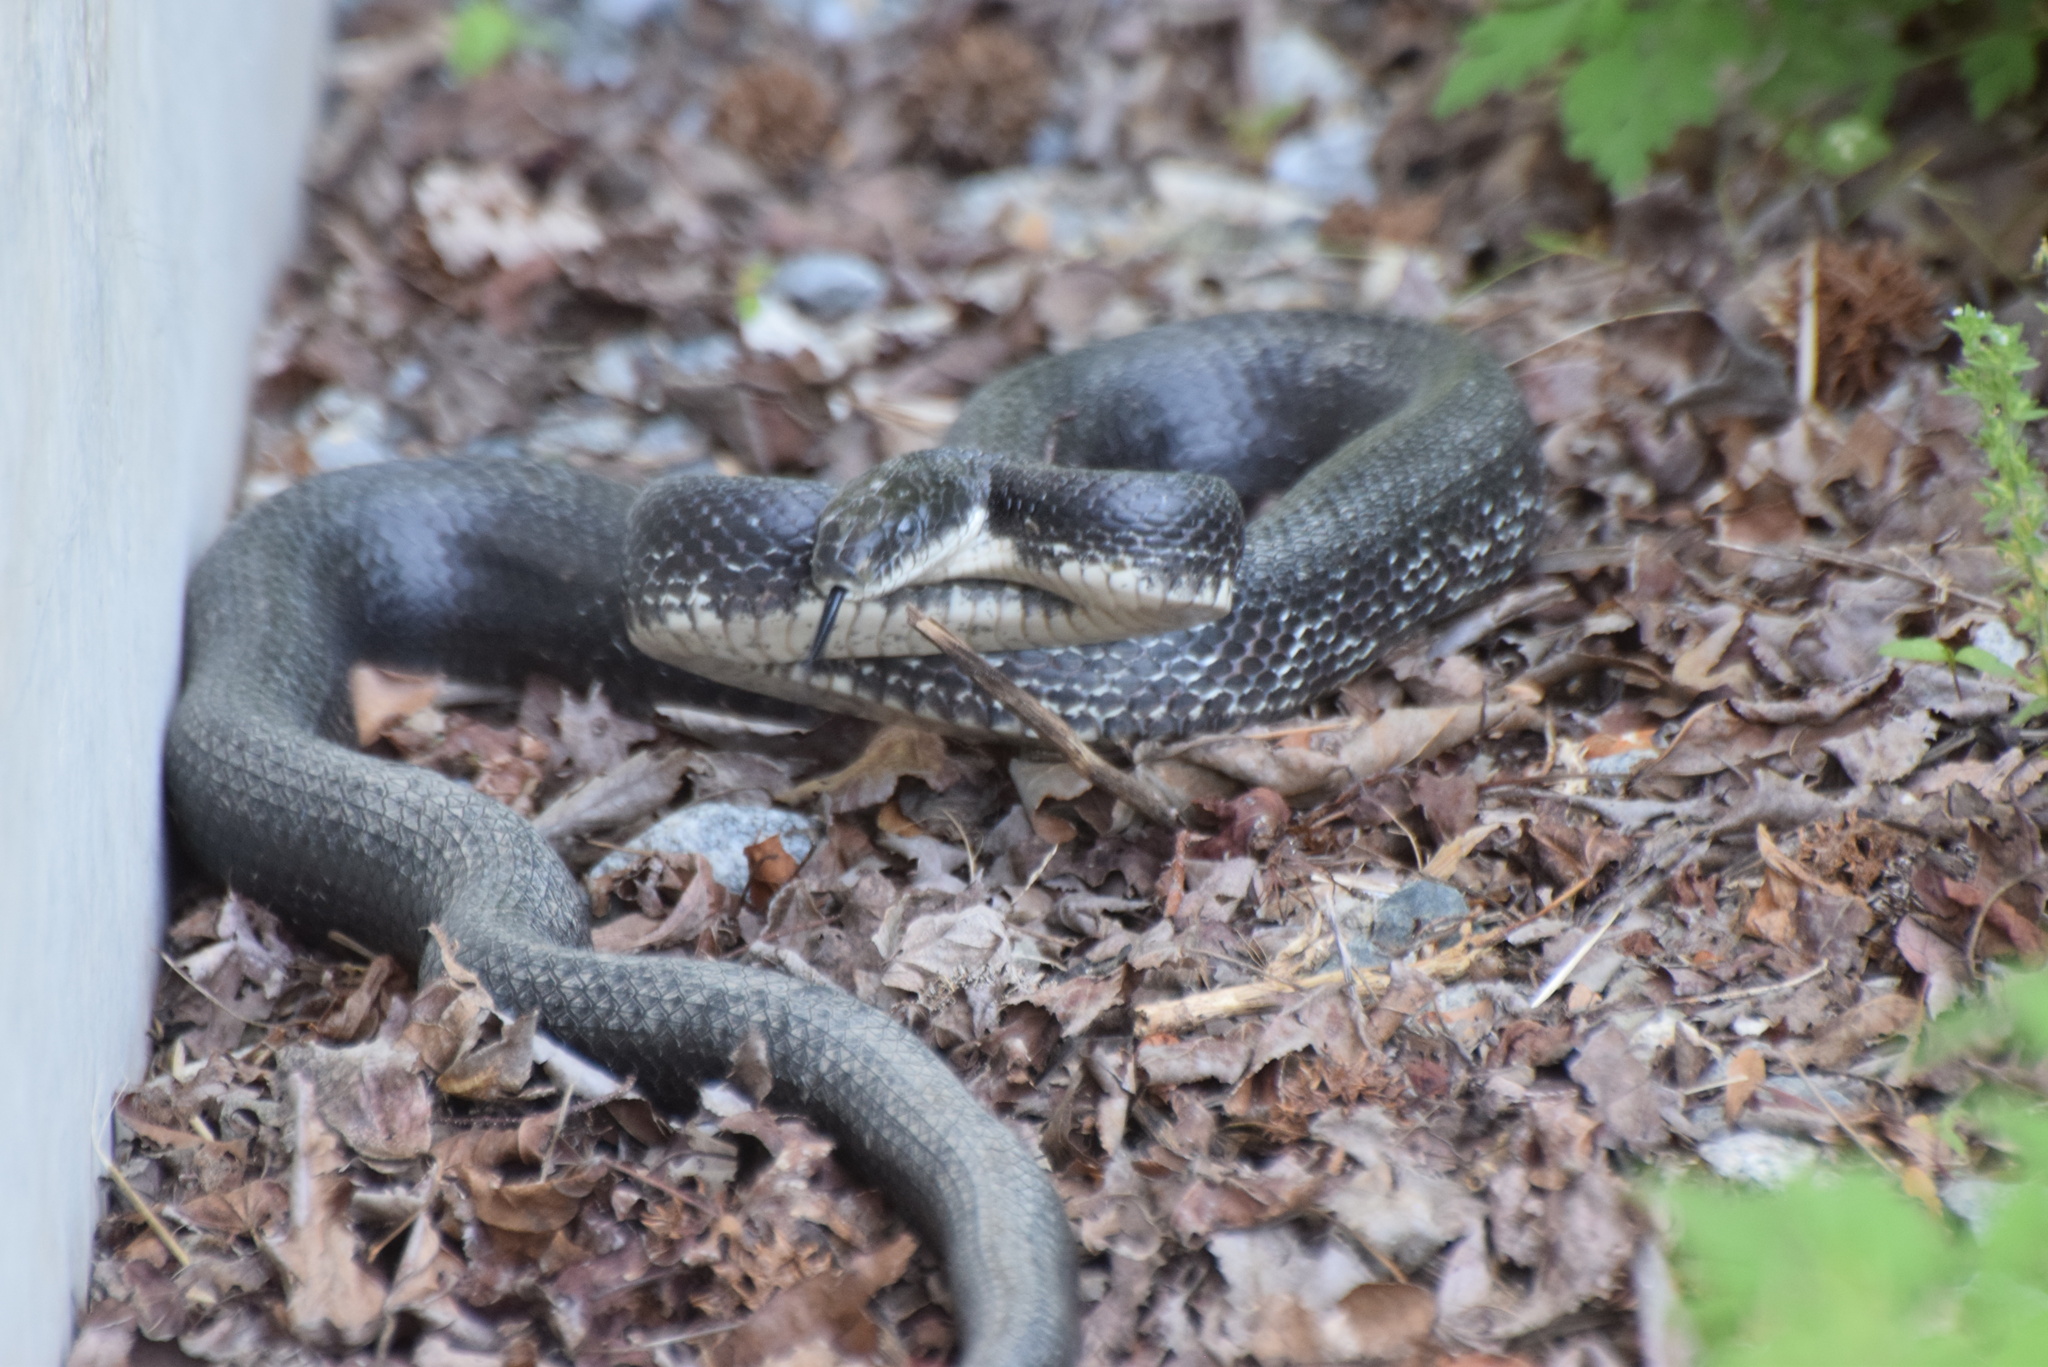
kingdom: Animalia
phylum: Chordata
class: Squamata
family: Colubridae
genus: Pantherophis
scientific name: Pantherophis
